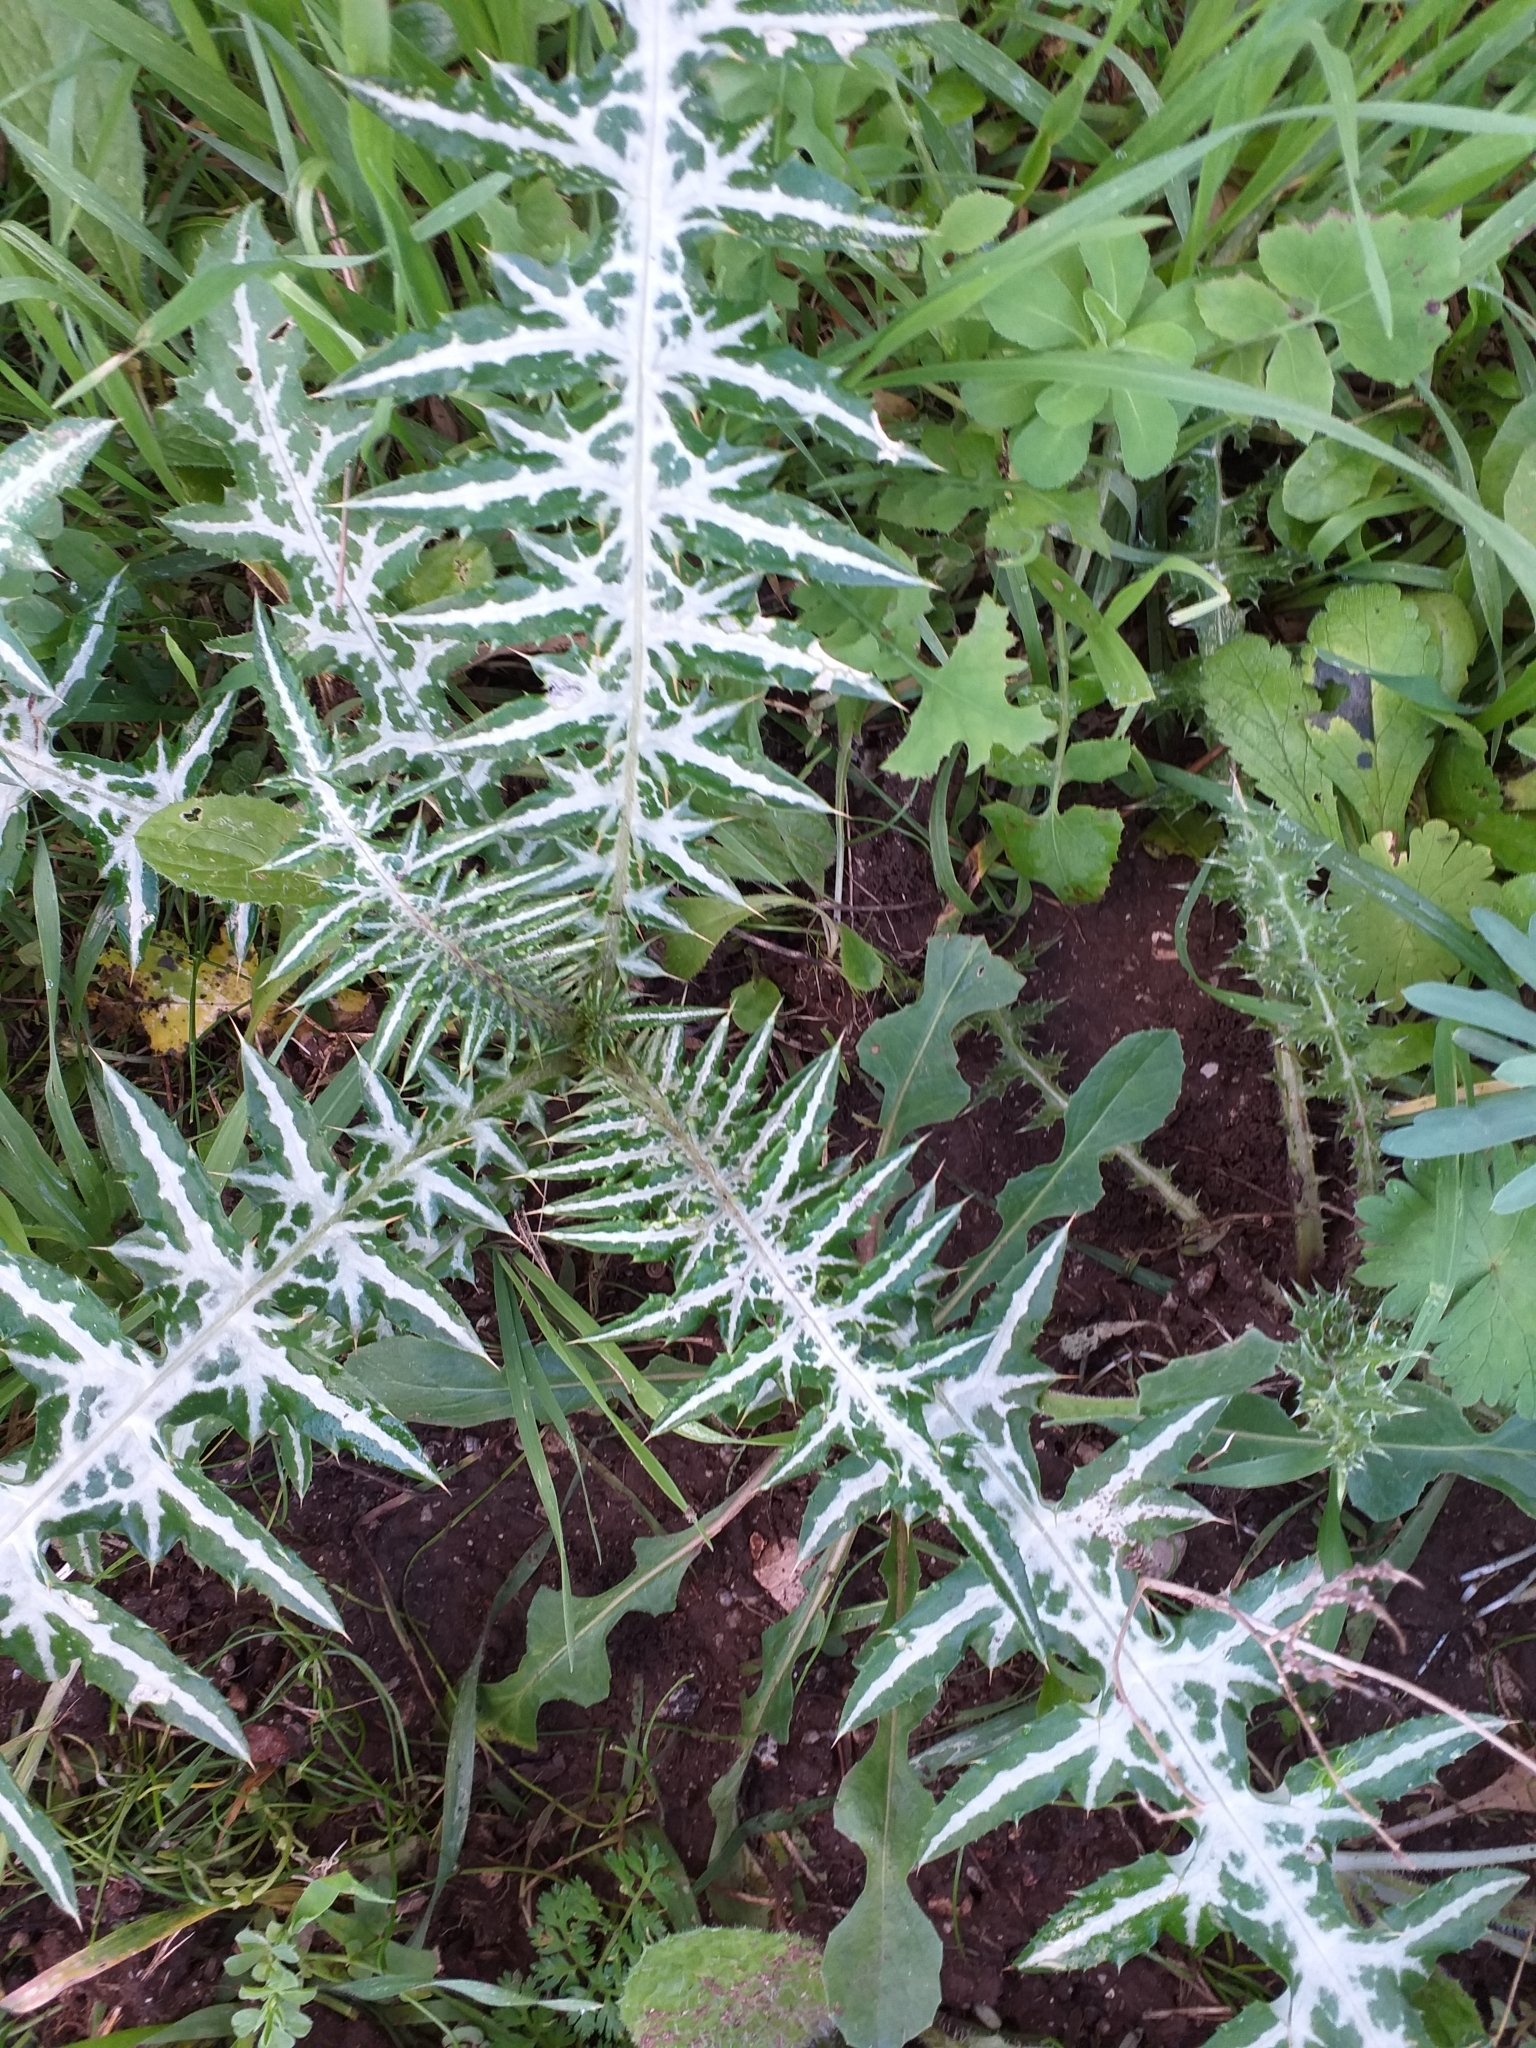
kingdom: Plantae
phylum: Tracheophyta
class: Magnoliopsida
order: Asterales
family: Asteraceae
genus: Galactites
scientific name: Galactites tomentosa
